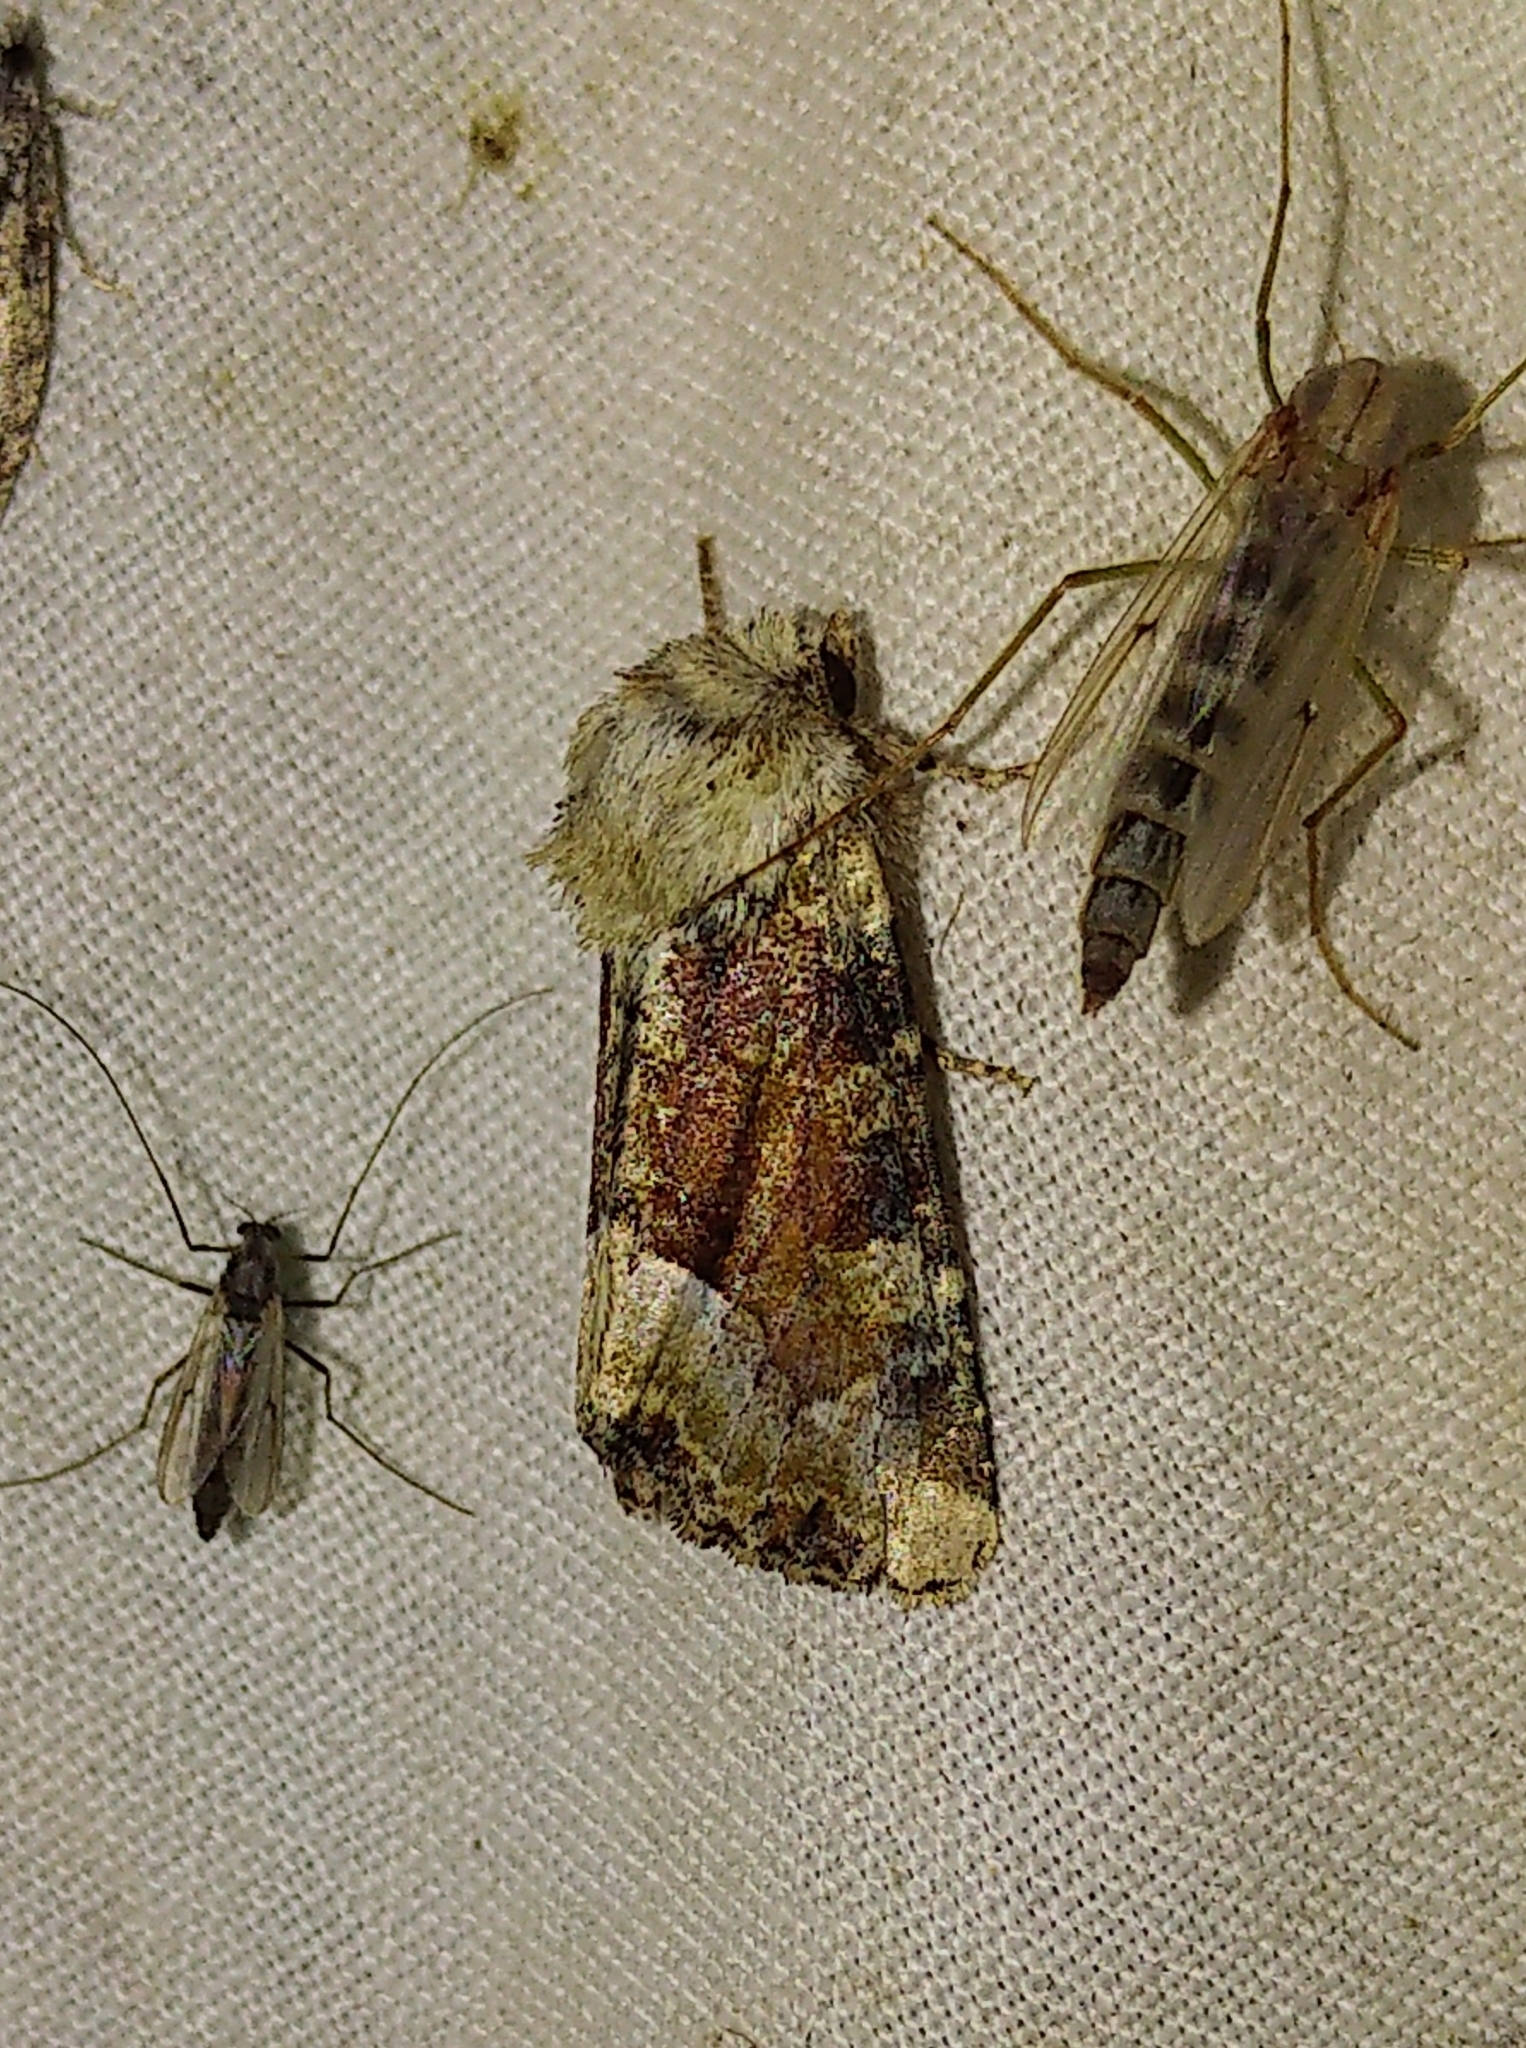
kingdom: Animalia
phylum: Arthropoda
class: Insecta
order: Lepidoptera
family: Noctuidae
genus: Oligia
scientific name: Oligia egens
